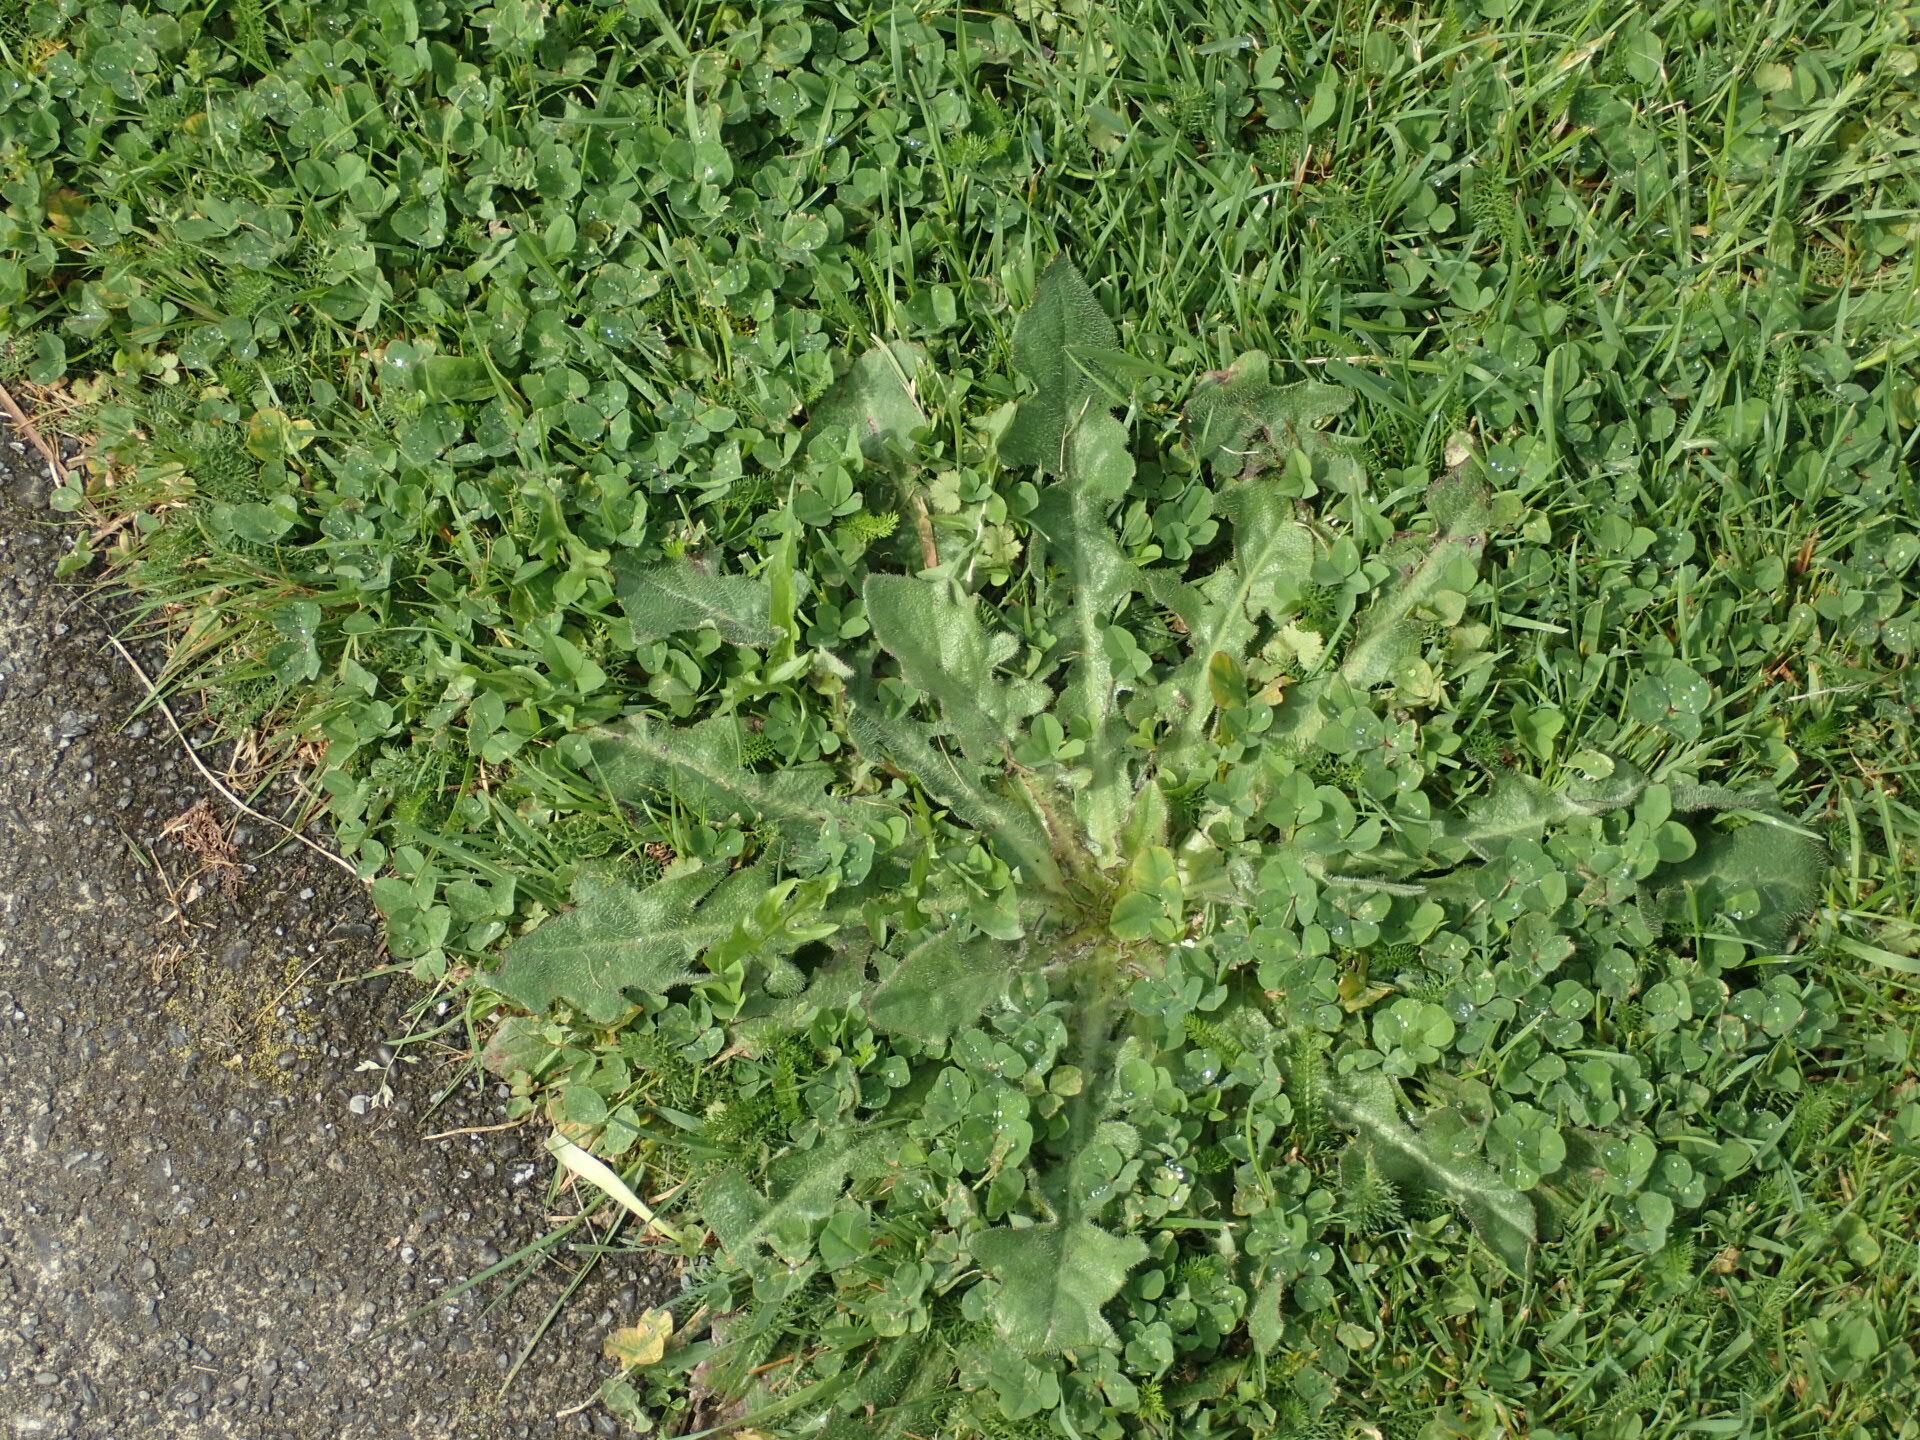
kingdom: Plantae
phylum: Tracheophyta
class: Magnoliopsida
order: Asterales
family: Asteraceae
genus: Hypochaeris
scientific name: Hypochaeris radicata
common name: Flatweed
